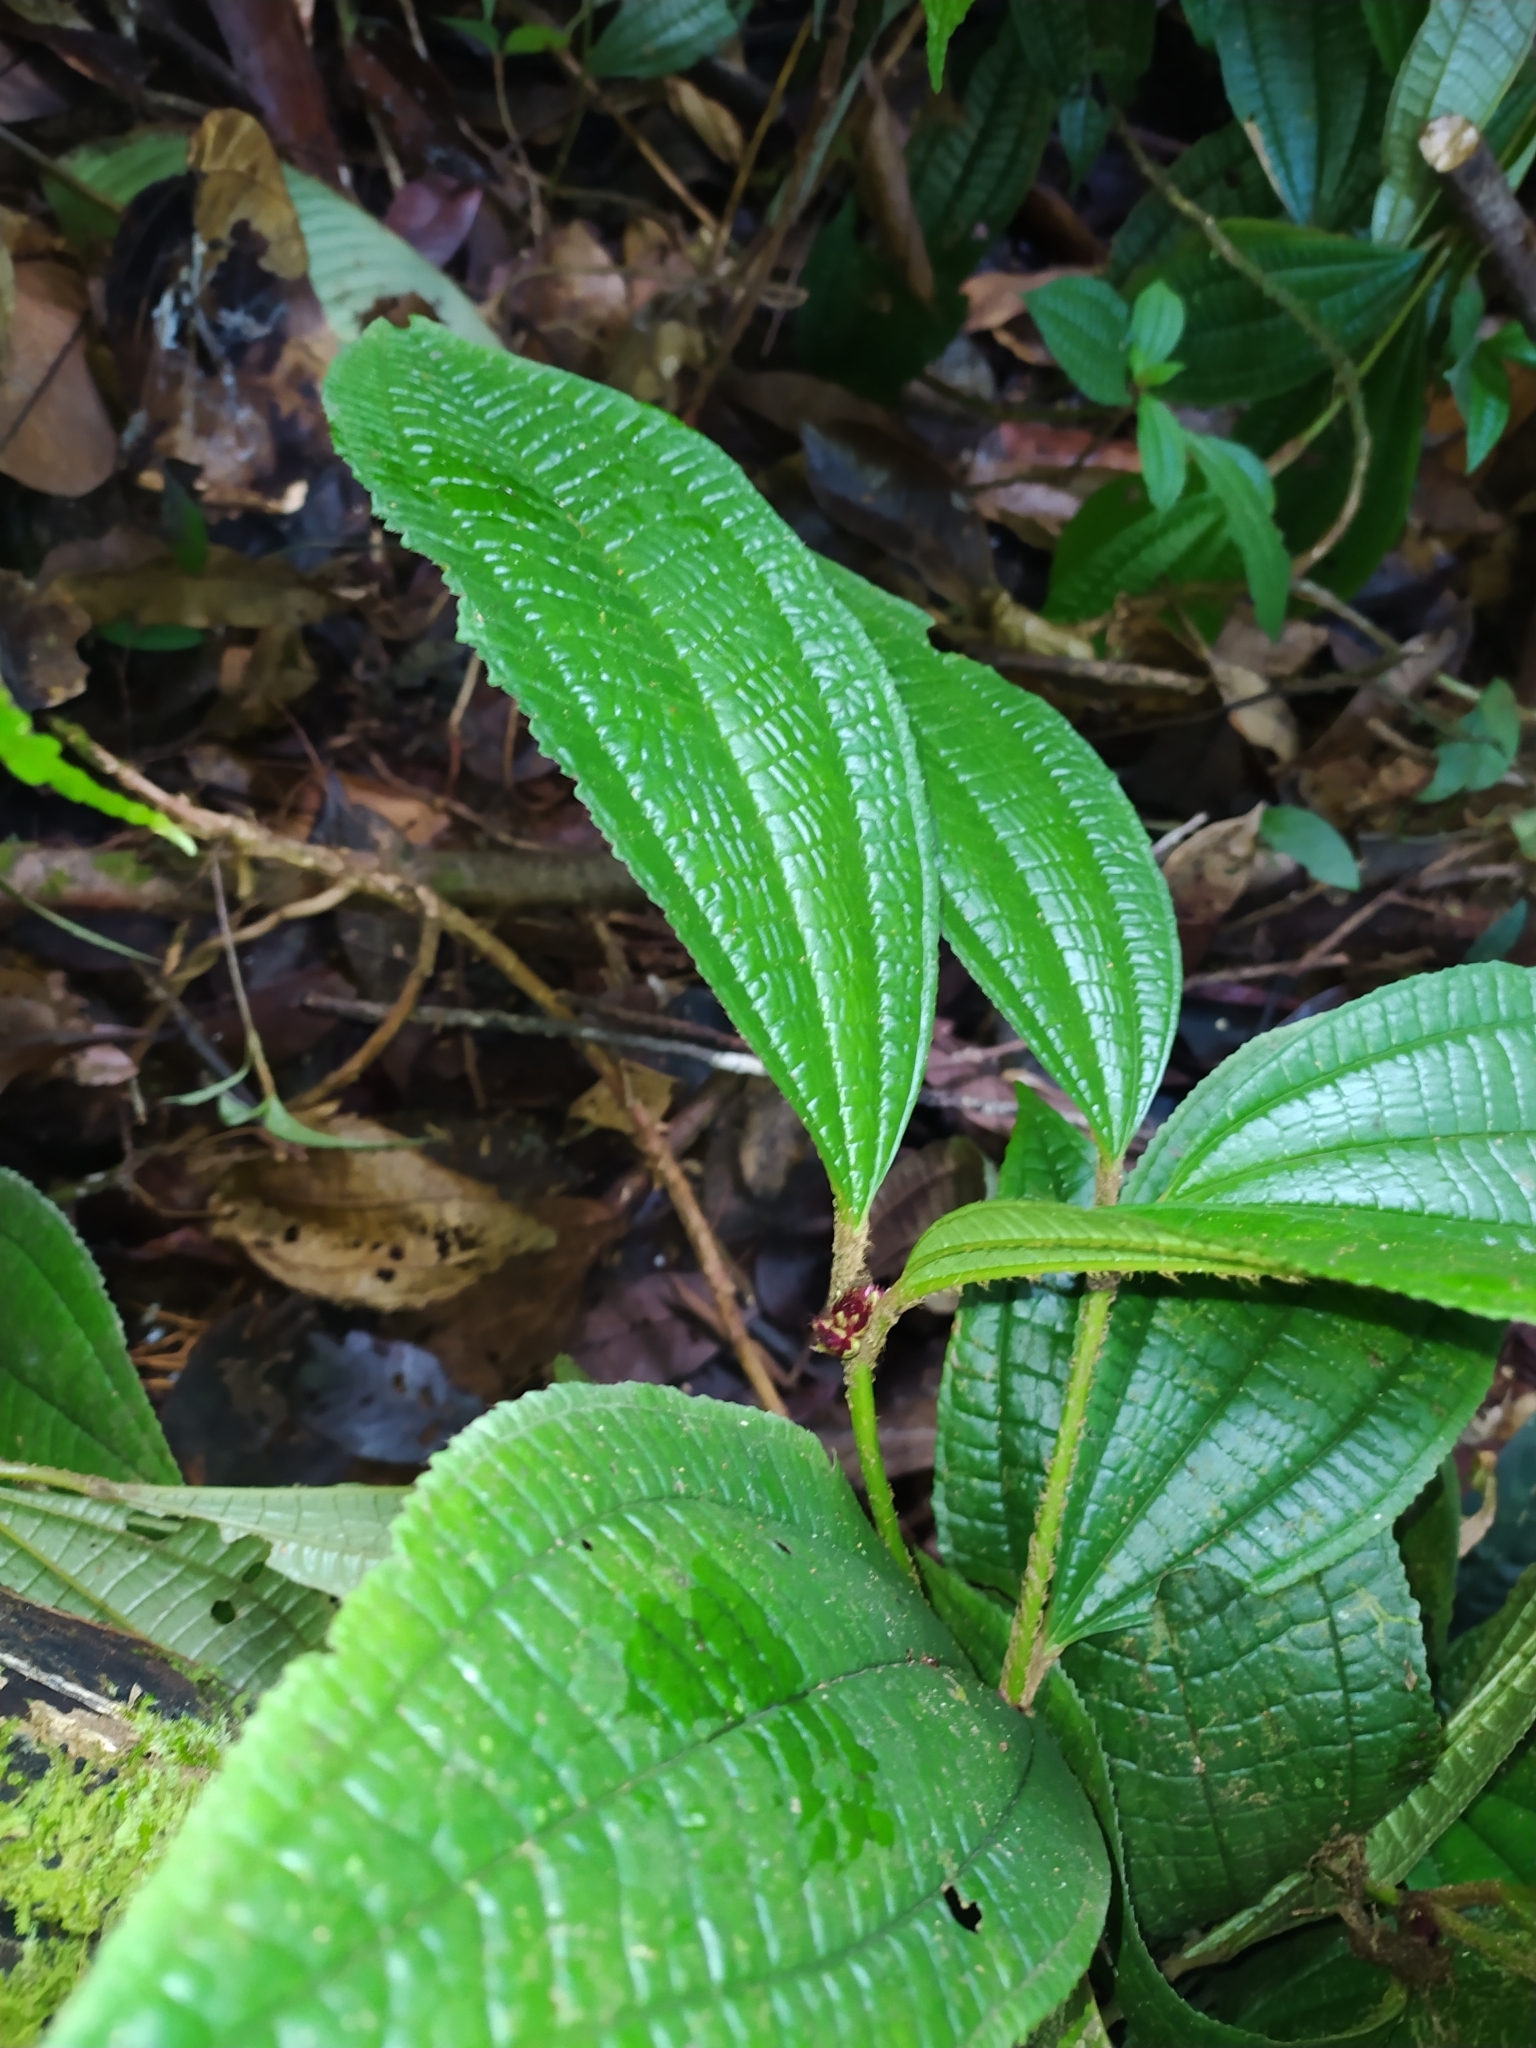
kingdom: Plantae
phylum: Tracheophyta
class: Magnoliopsida
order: Myrtales
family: Melastomataceae
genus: Miconia
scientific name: Miconia conglomerata
